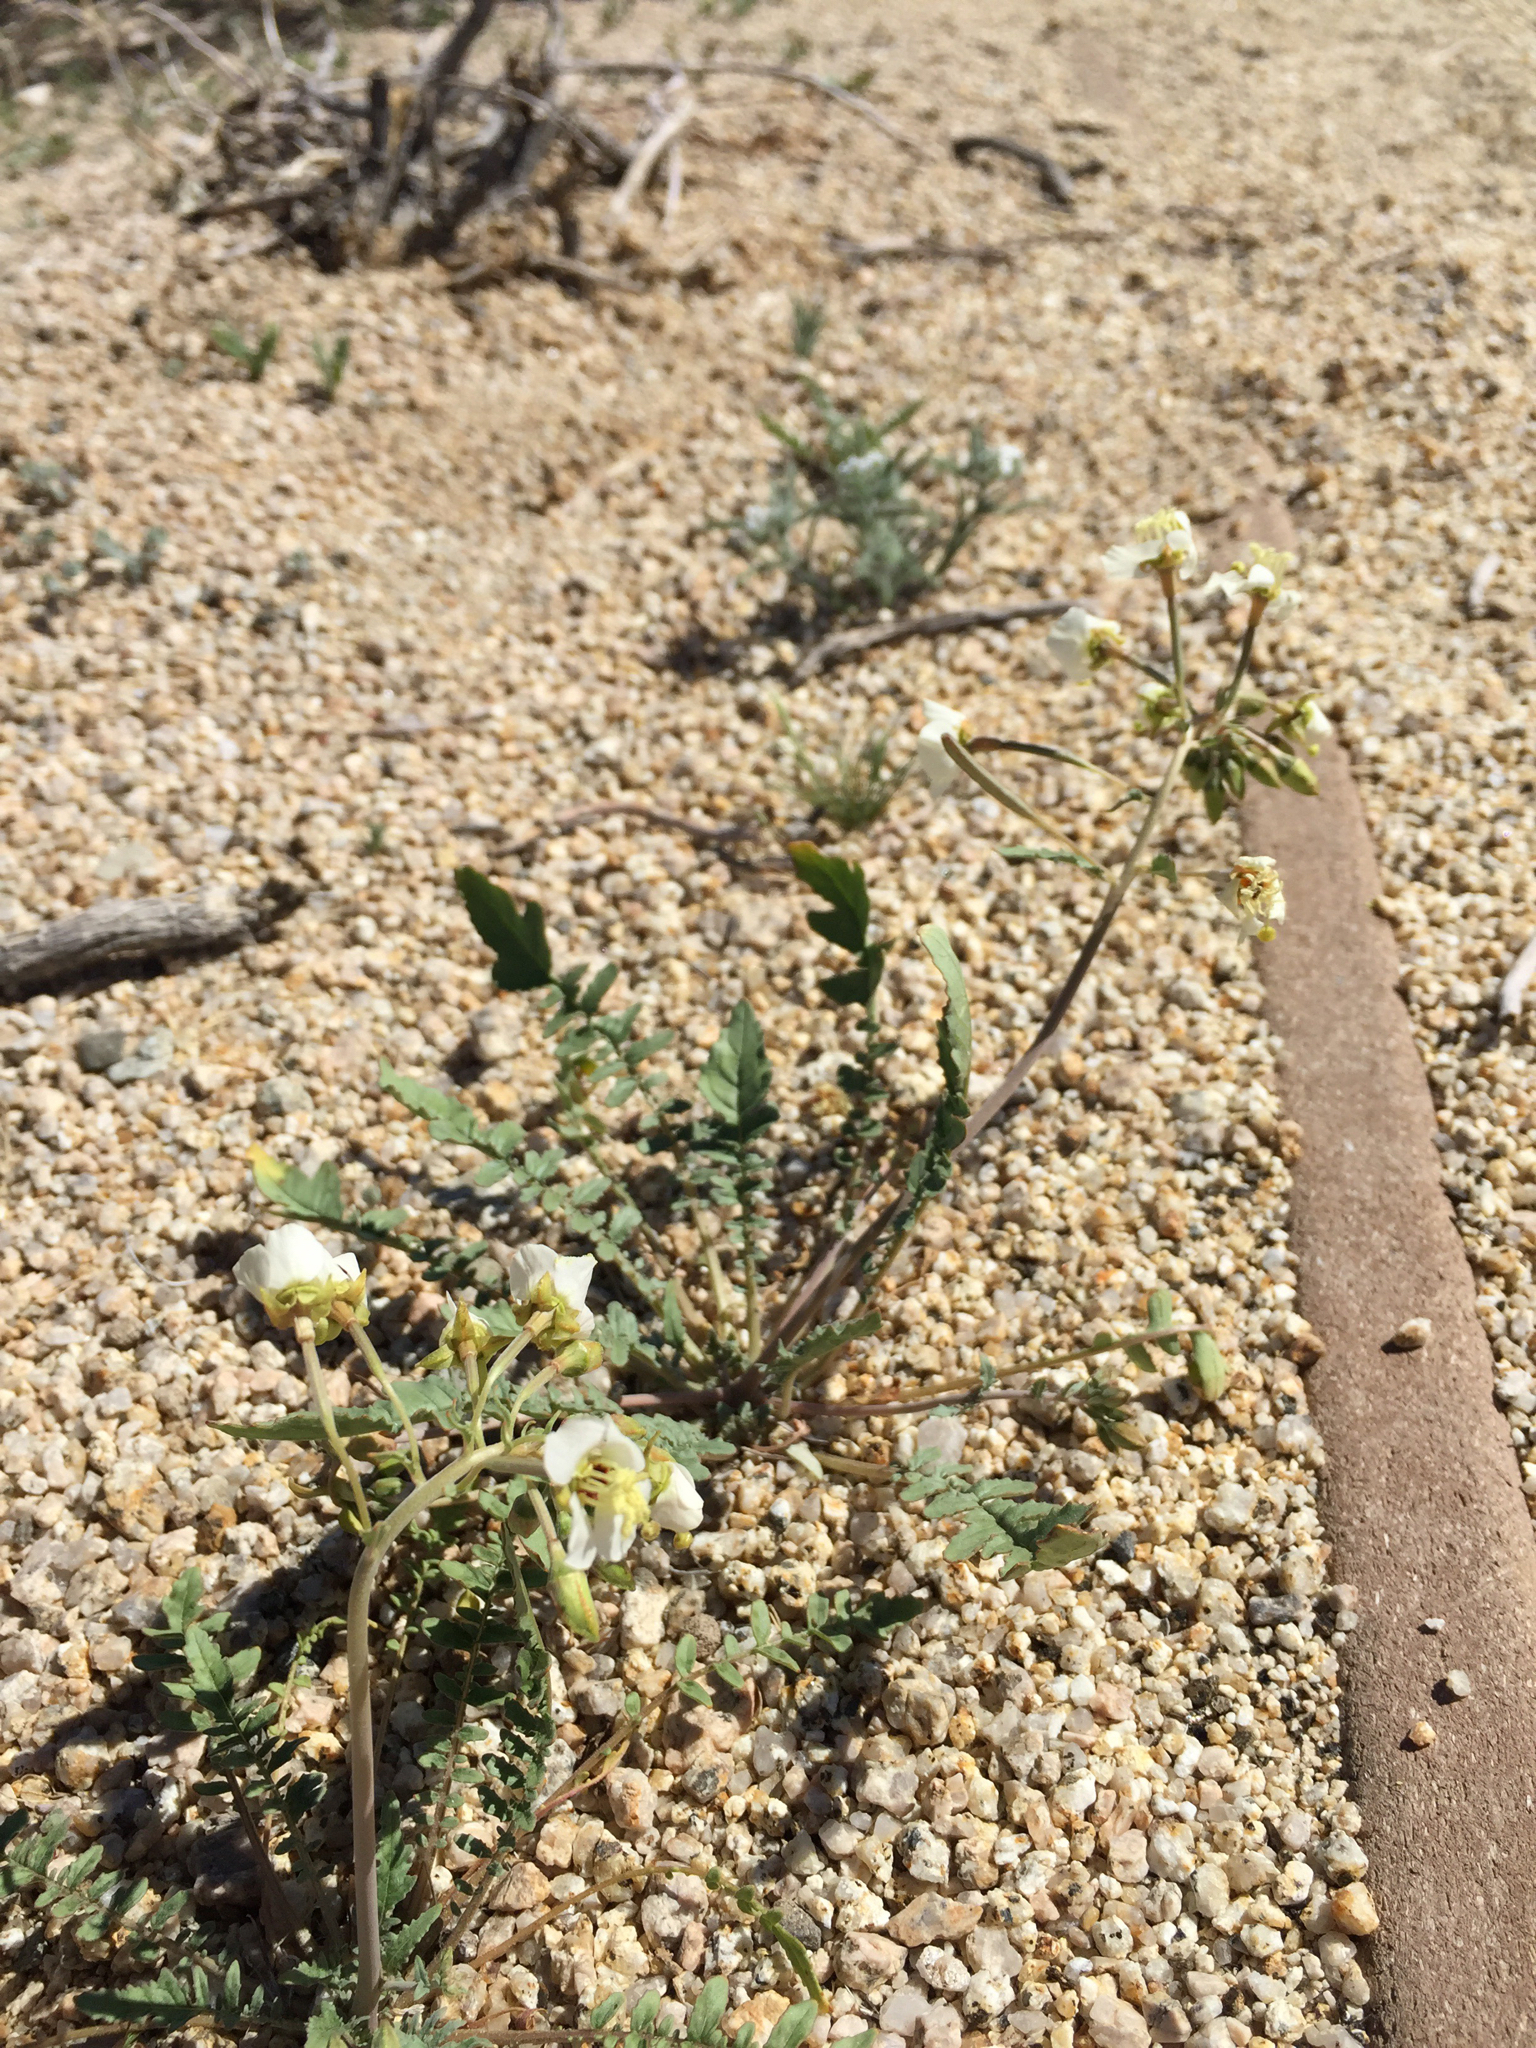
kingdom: Plantae
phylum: Tracheophyta
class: Magnoliopsida
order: Myrtales
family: Onagraceae
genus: Chylismia
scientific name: Chylismia claviformis
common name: Browneyes
